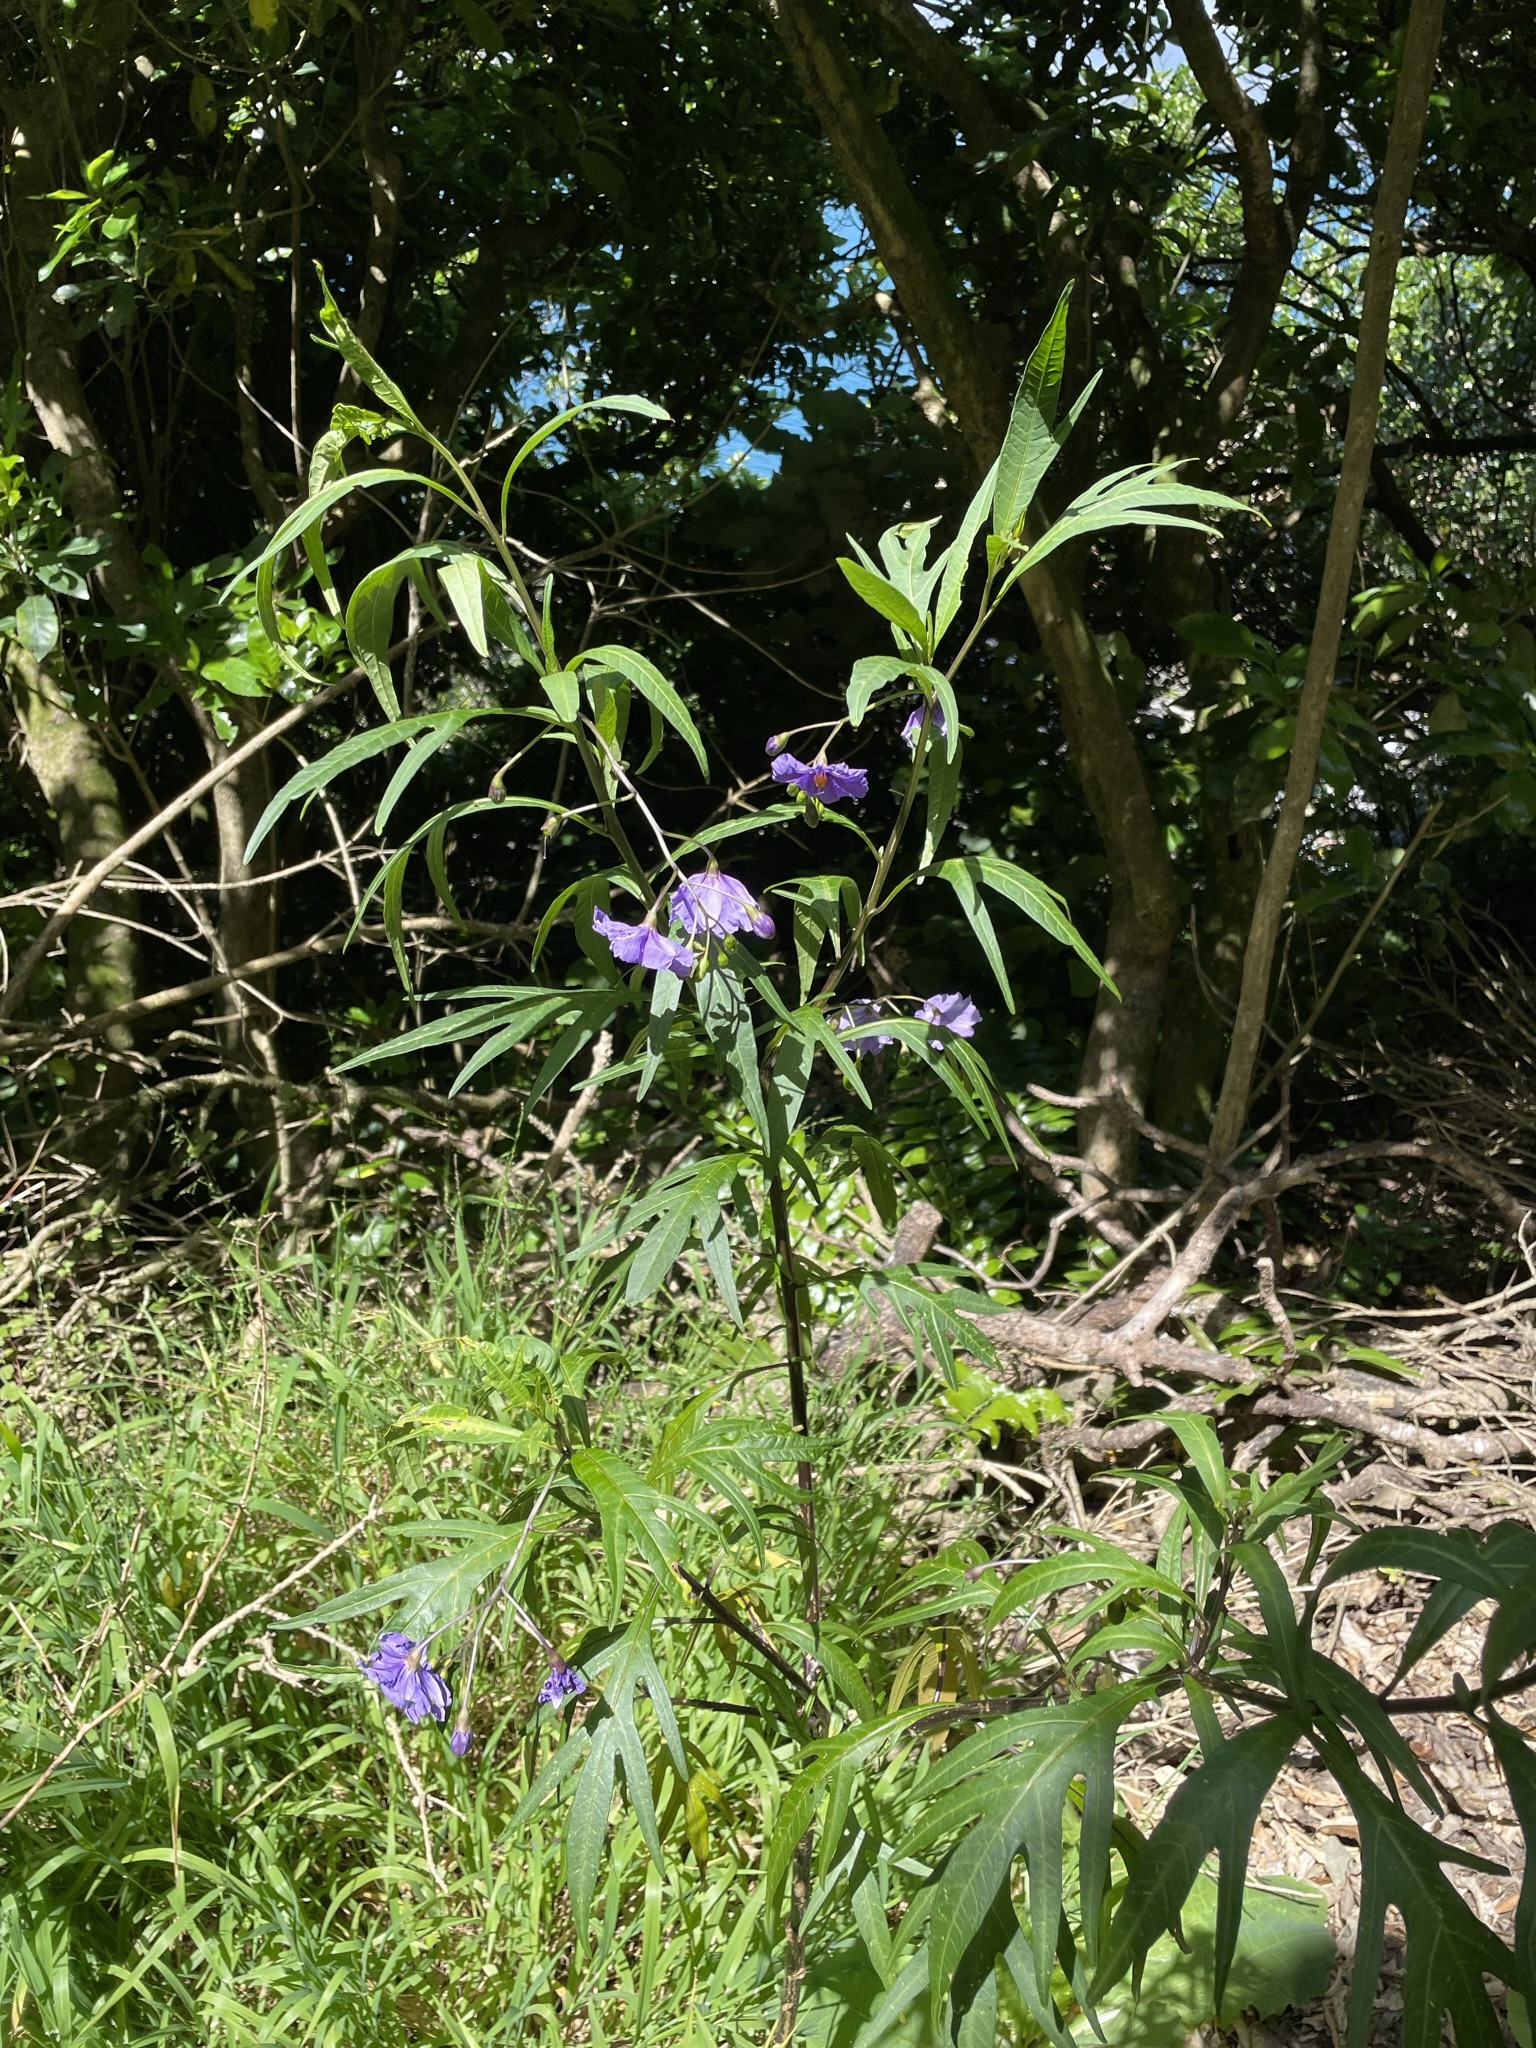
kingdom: Plantae
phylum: Tracheophyta
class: Magnoliopsida
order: Solanales
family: Solanaceae
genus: Solanum
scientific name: Solanum laciniatum
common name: Kangaroo-apple
